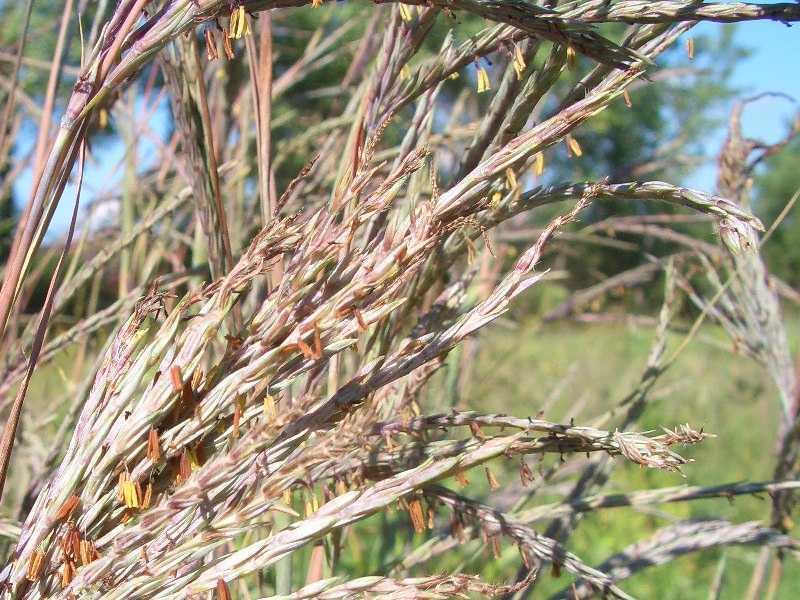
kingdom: Plantae
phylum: Tracheophyta
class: Liliopsida
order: Poales
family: Poaceae
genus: Andropogon
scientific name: Andropogon gerardi
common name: Big bluestem
